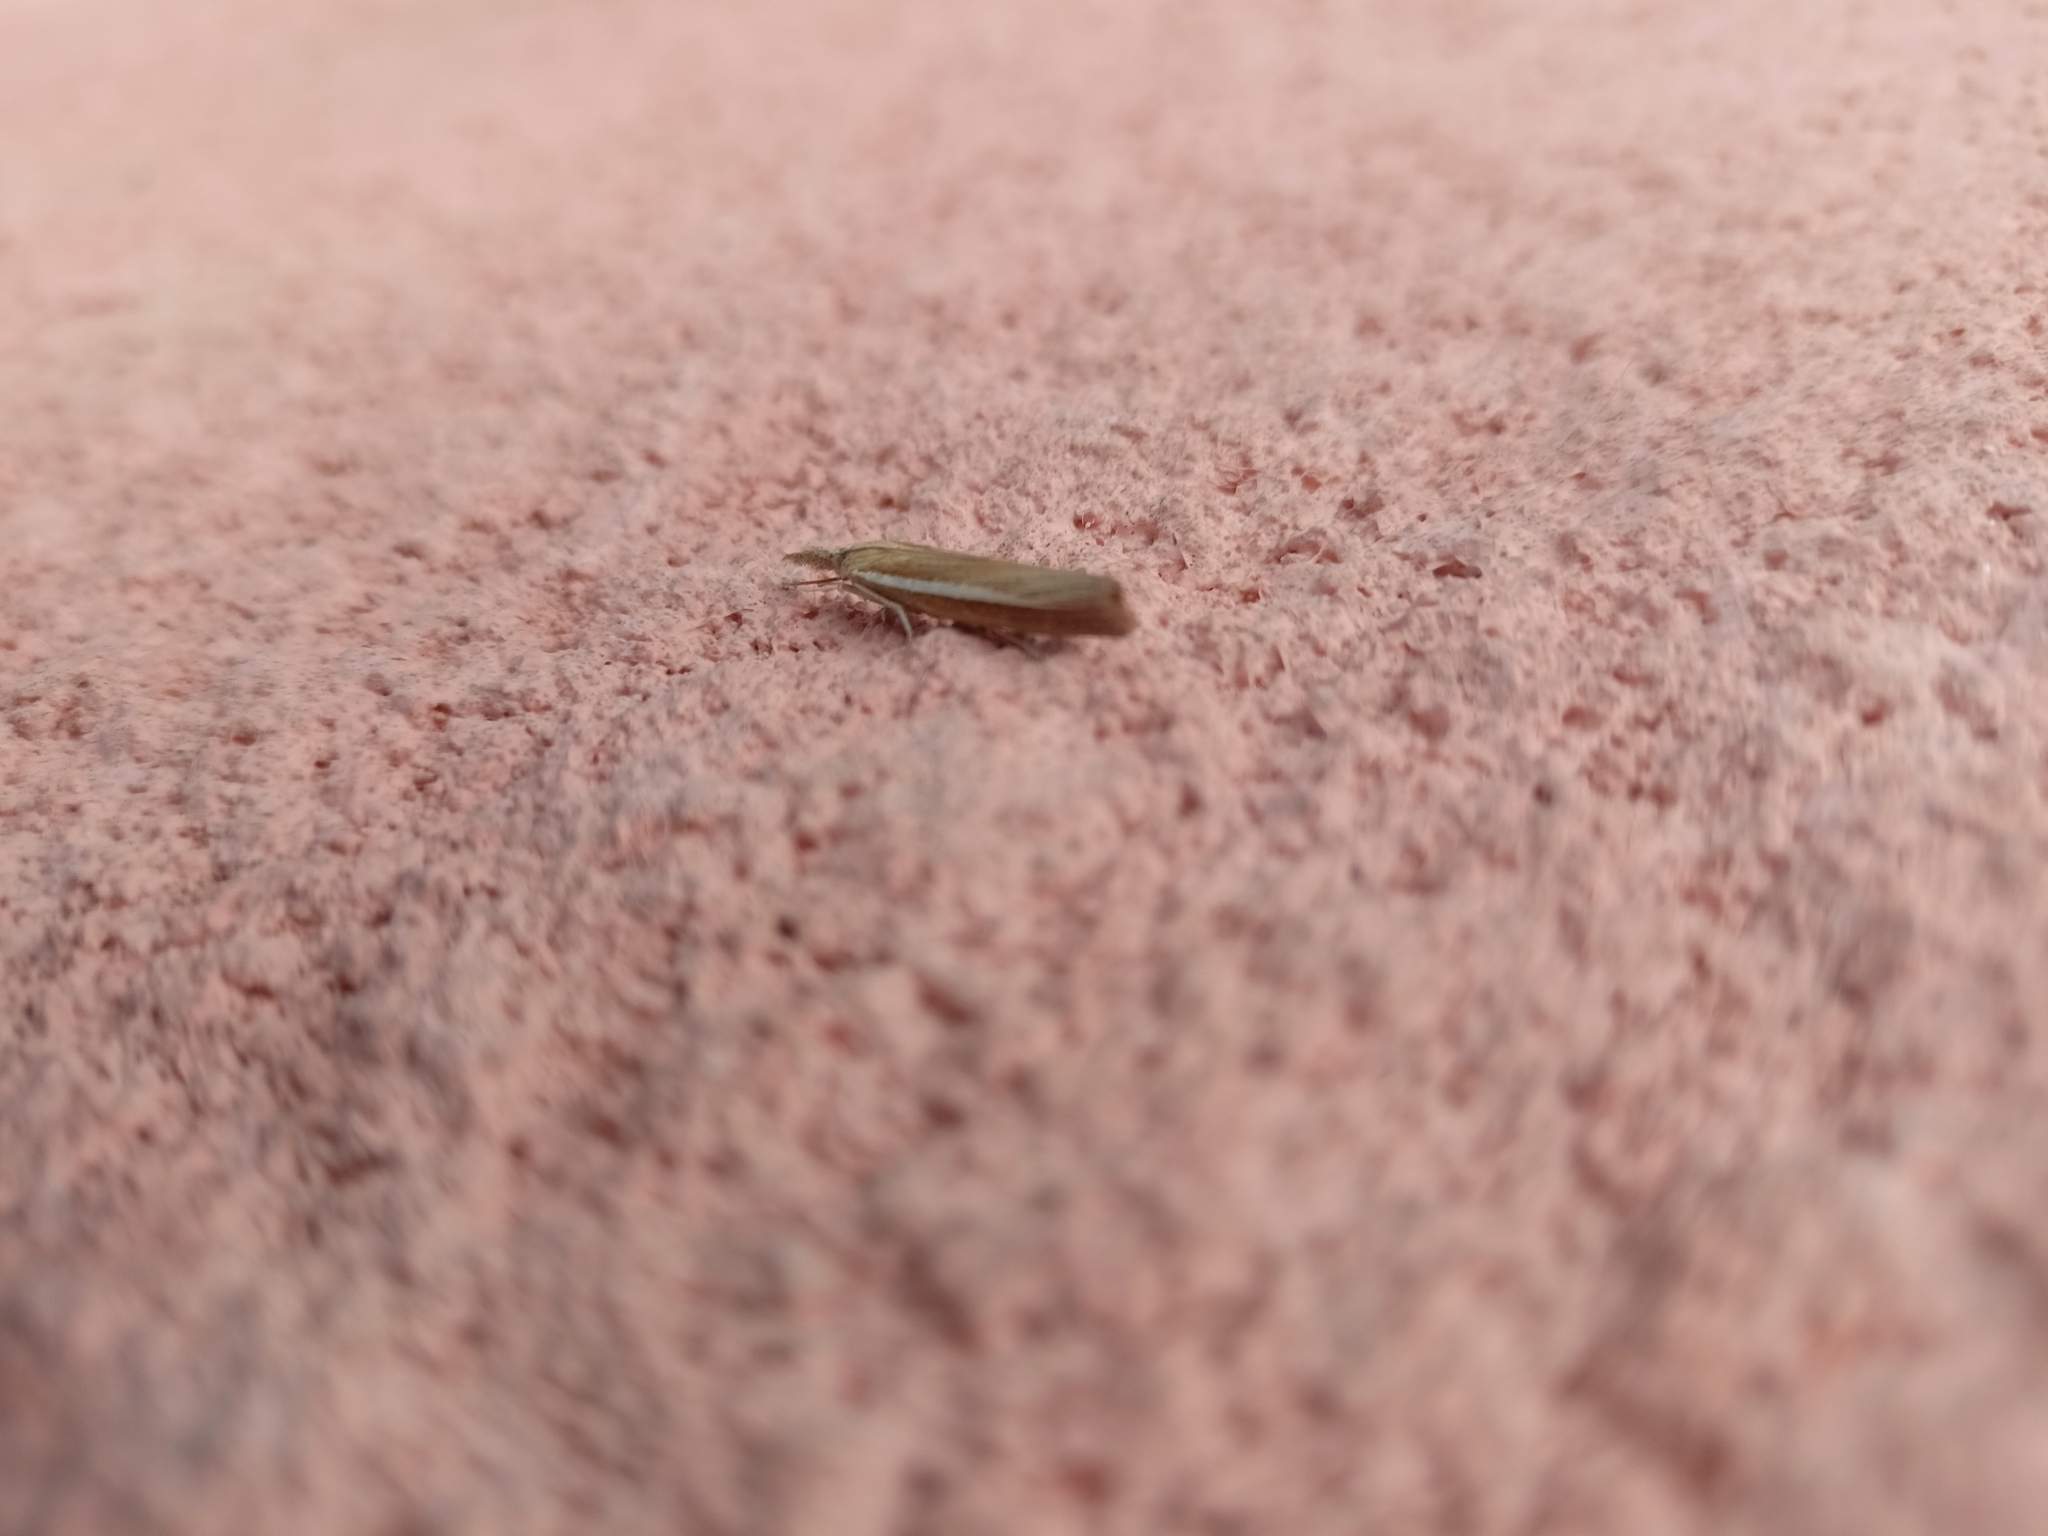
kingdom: Animalia
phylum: Arthropoda
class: Insecta
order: Lepidoptera
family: Crambidae
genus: Agriphila
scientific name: Agriphila selasella
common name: Pale-streak grass-veneer
